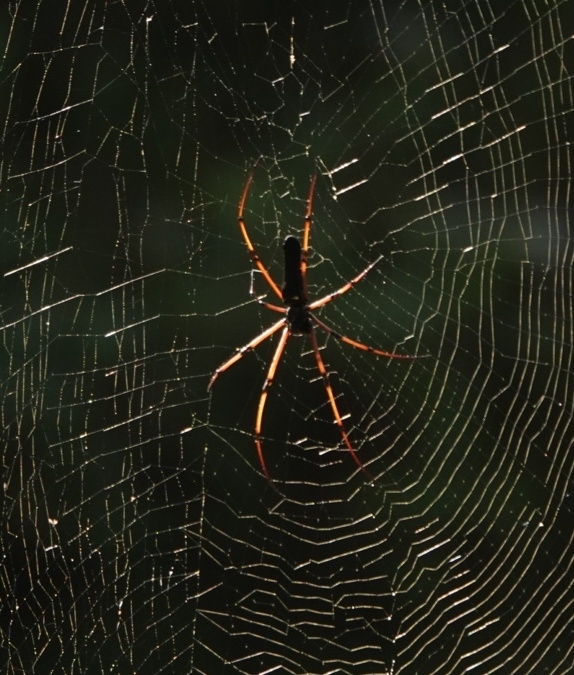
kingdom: Animalia
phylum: Arthropoda
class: Arachnida
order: Araneae
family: Araneidae
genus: Nephila
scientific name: Nephila kuhli
